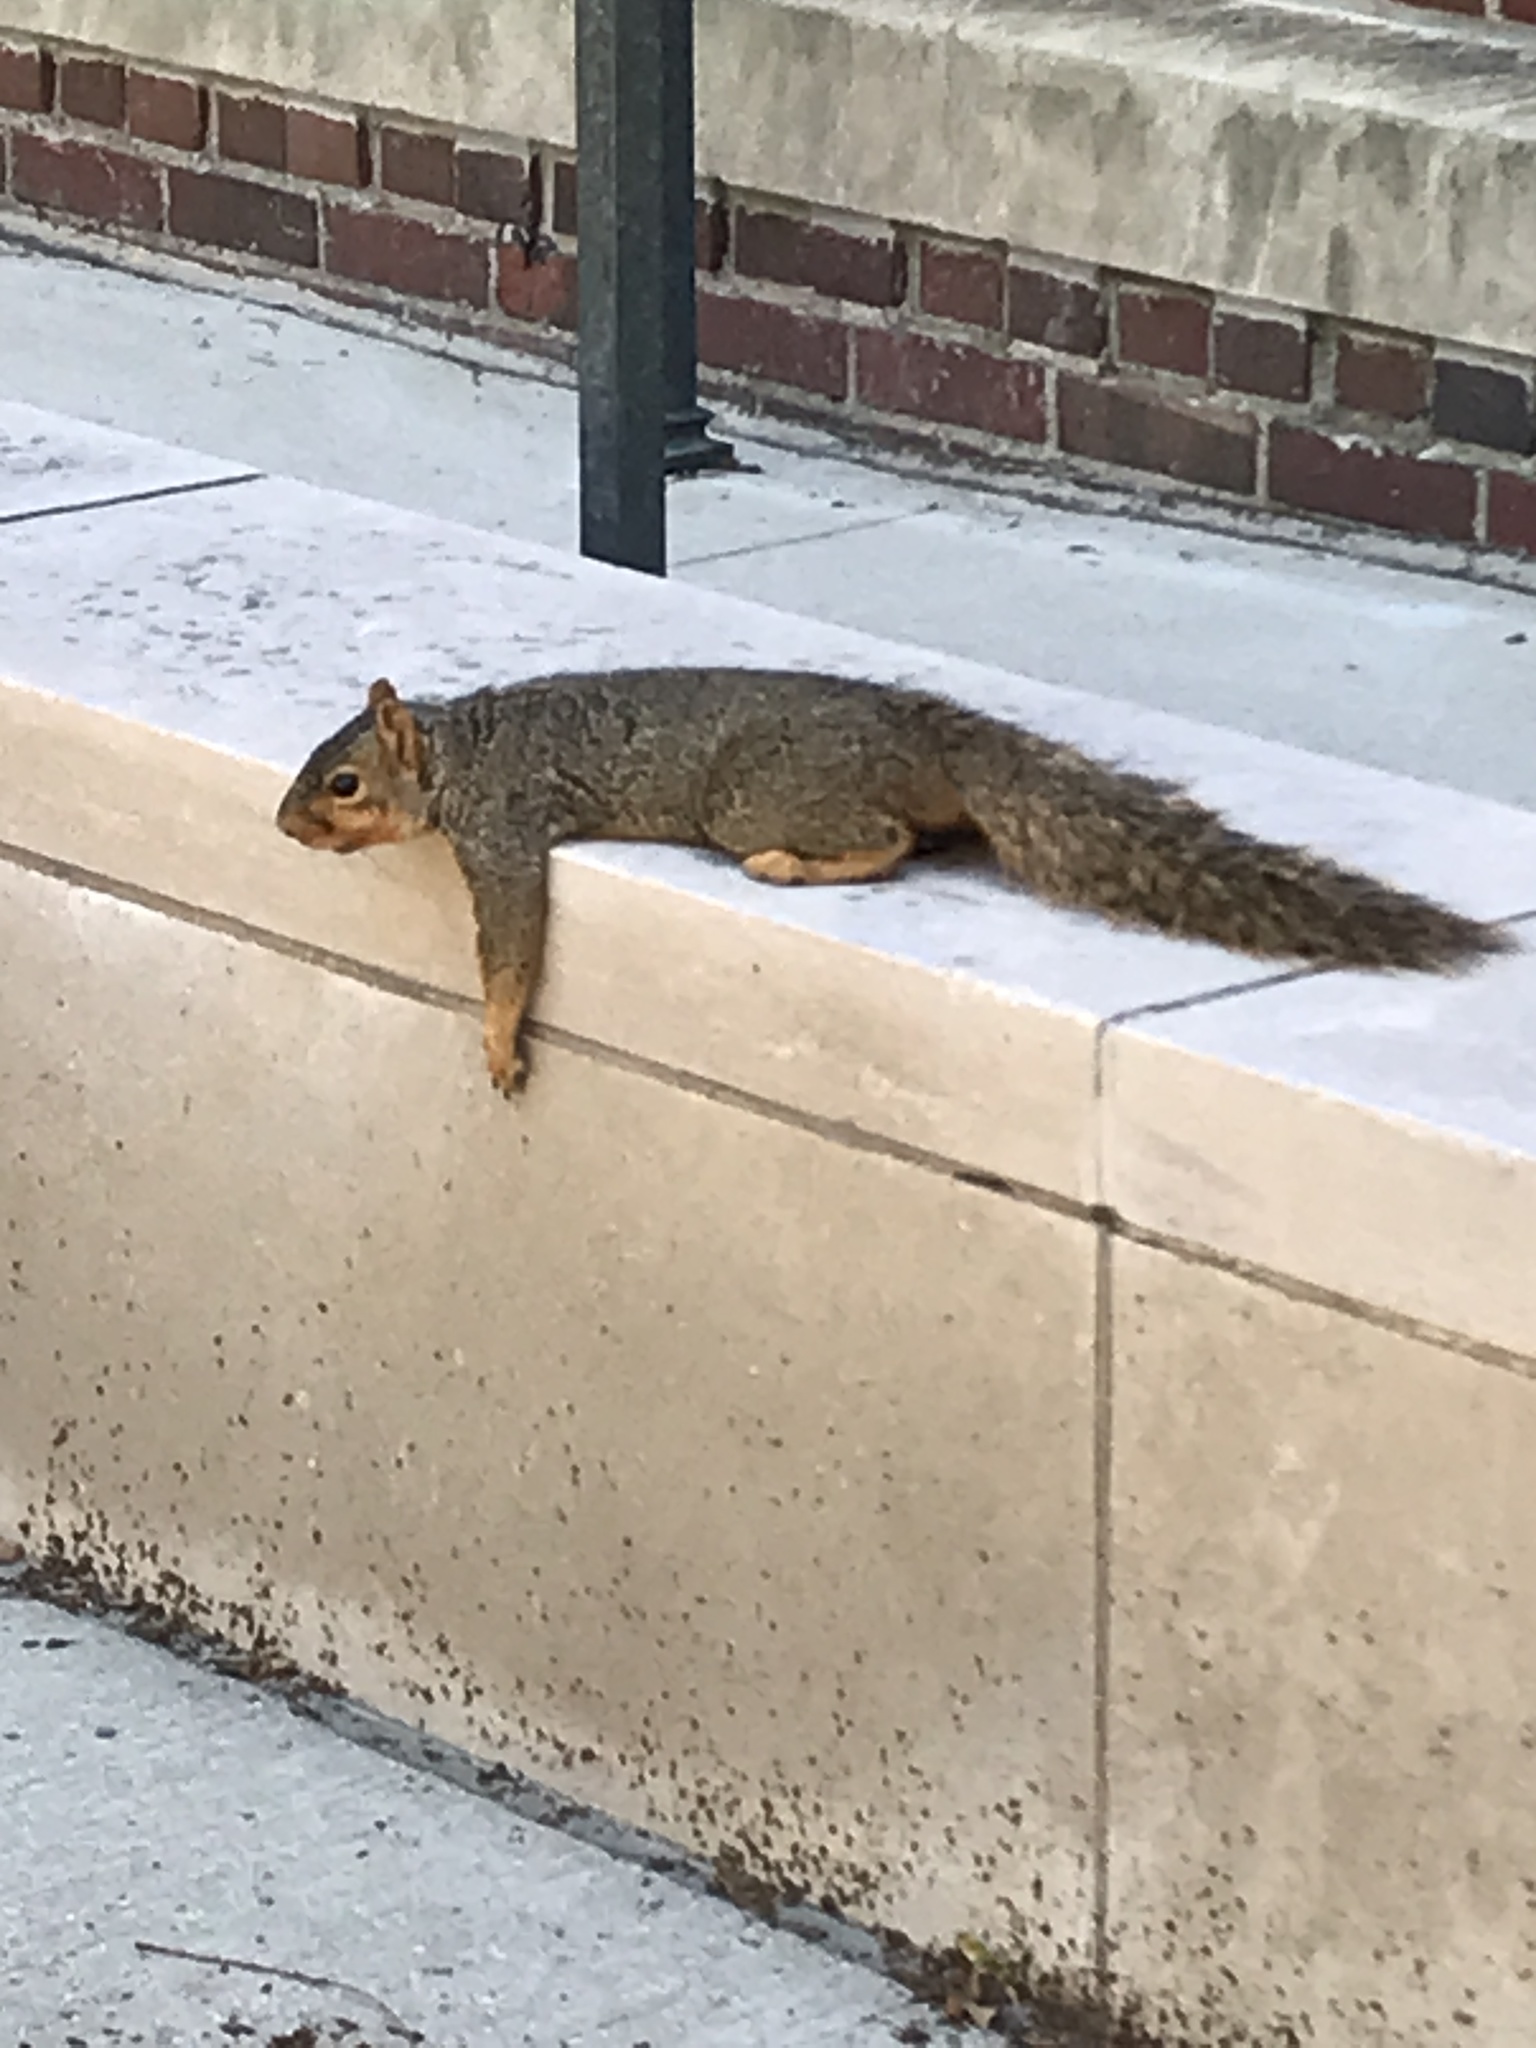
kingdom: Animalia
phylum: Chordata
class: Mammalia
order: Rodentia
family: Sciuridae
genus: Sciurus
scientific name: Sciurus niger
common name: Fox squirrel
